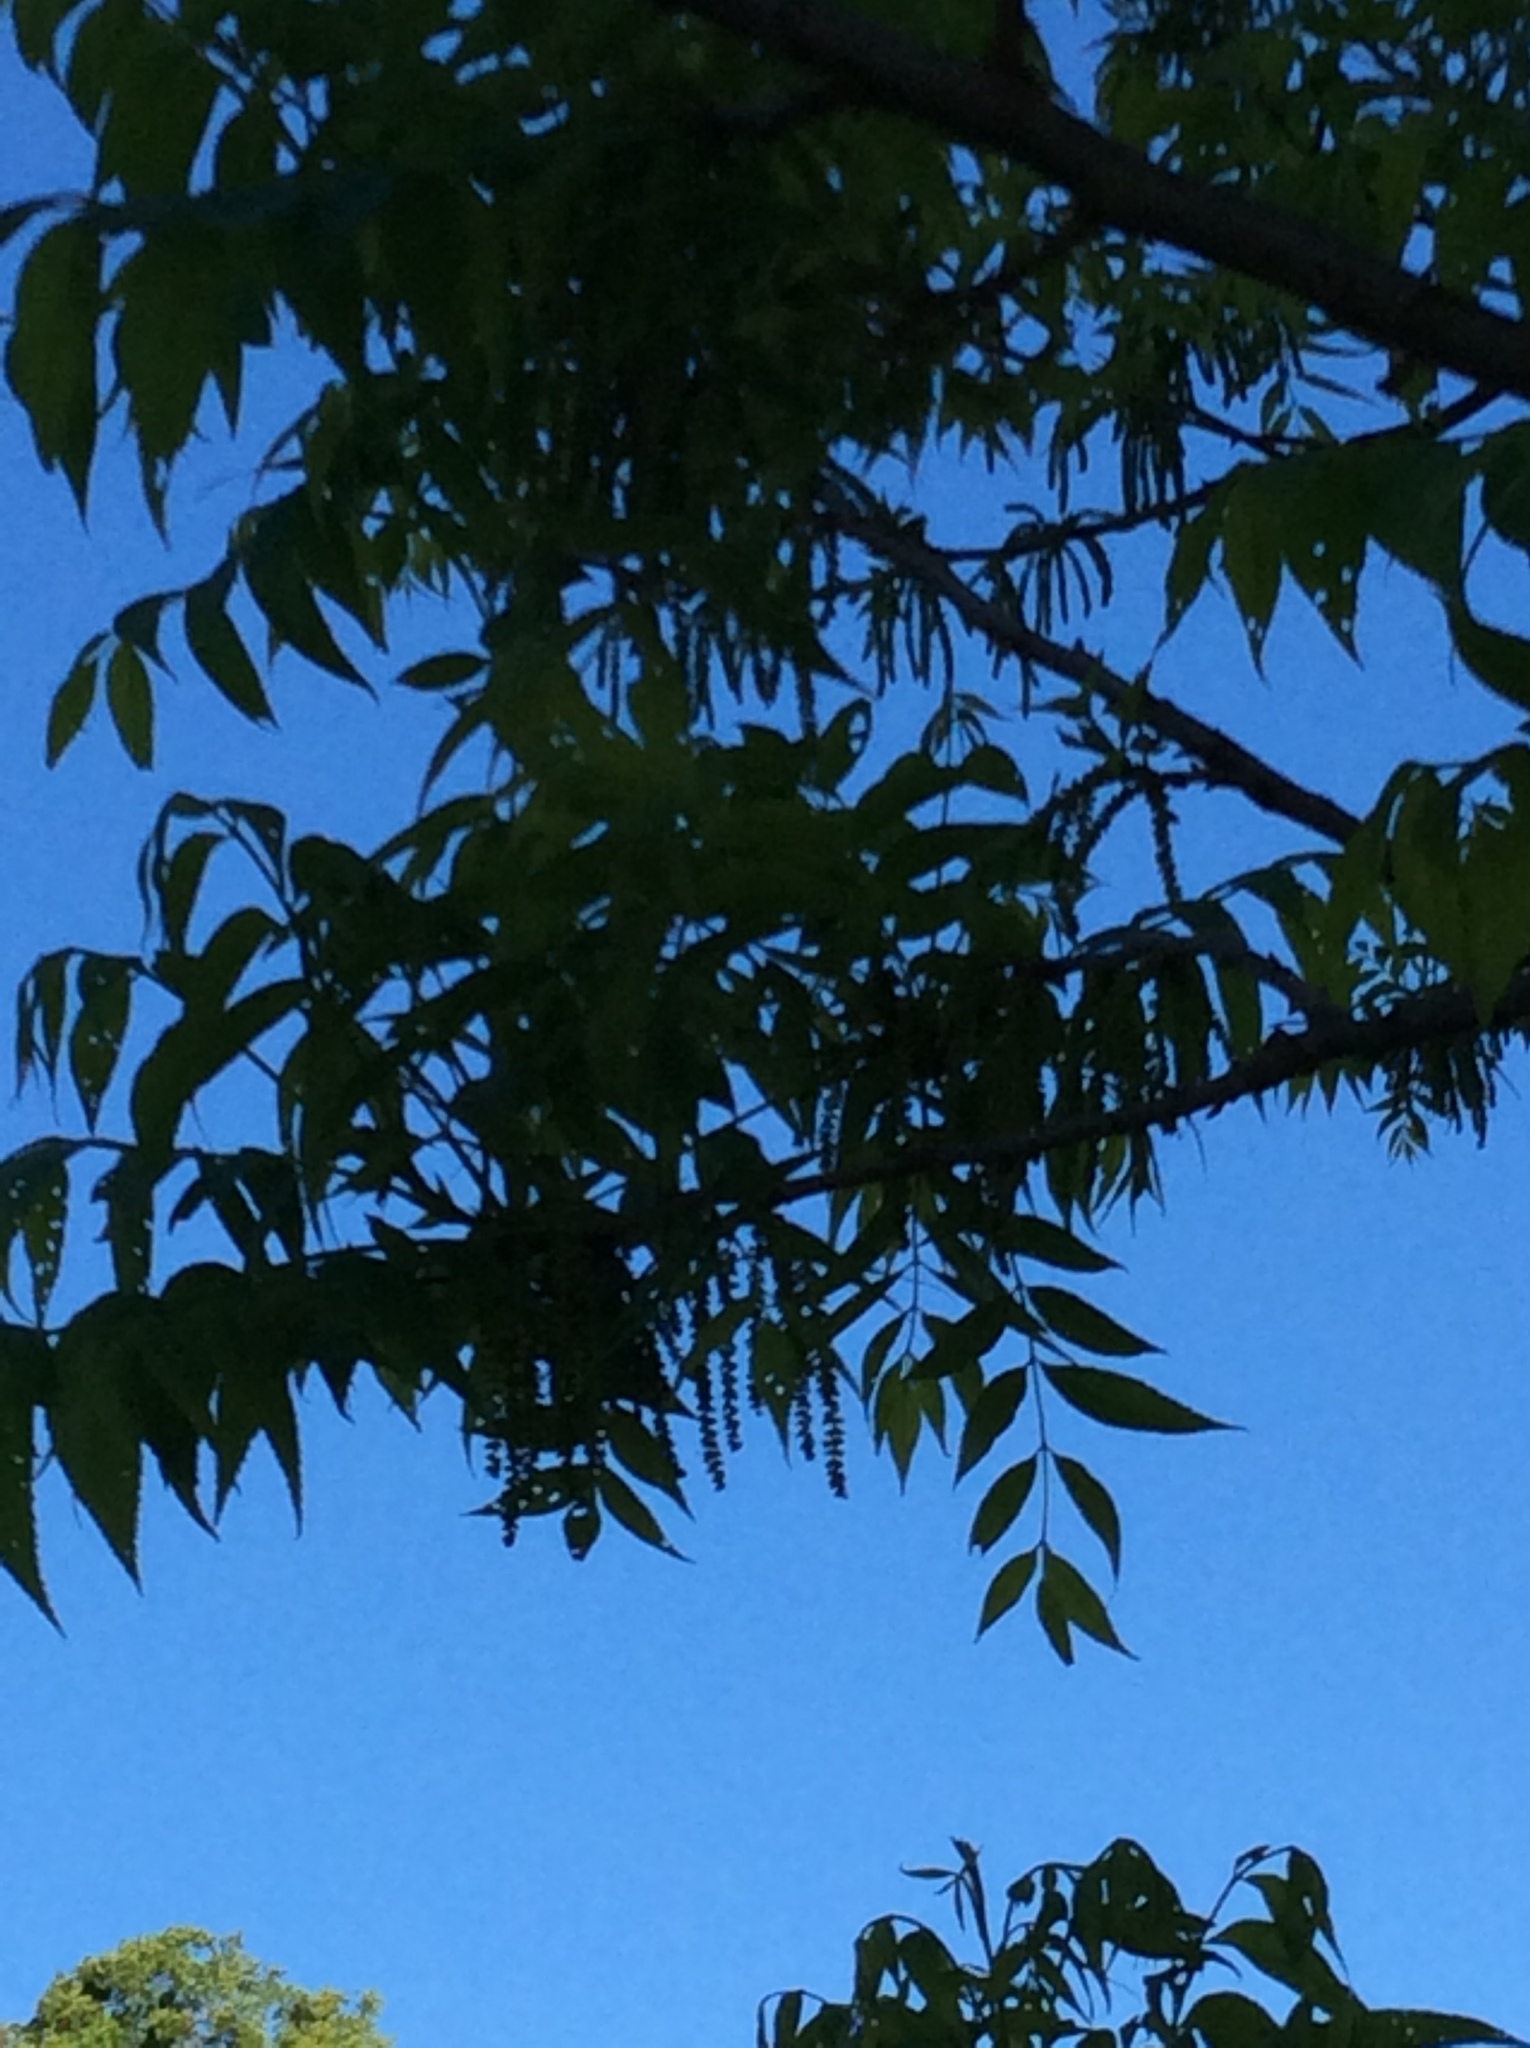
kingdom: Plantae
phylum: Tracheophyta
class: Magnoliopsida
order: Fagales
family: Juglandaceae
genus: Carya
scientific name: Carya illinoinensis
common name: Pecan
